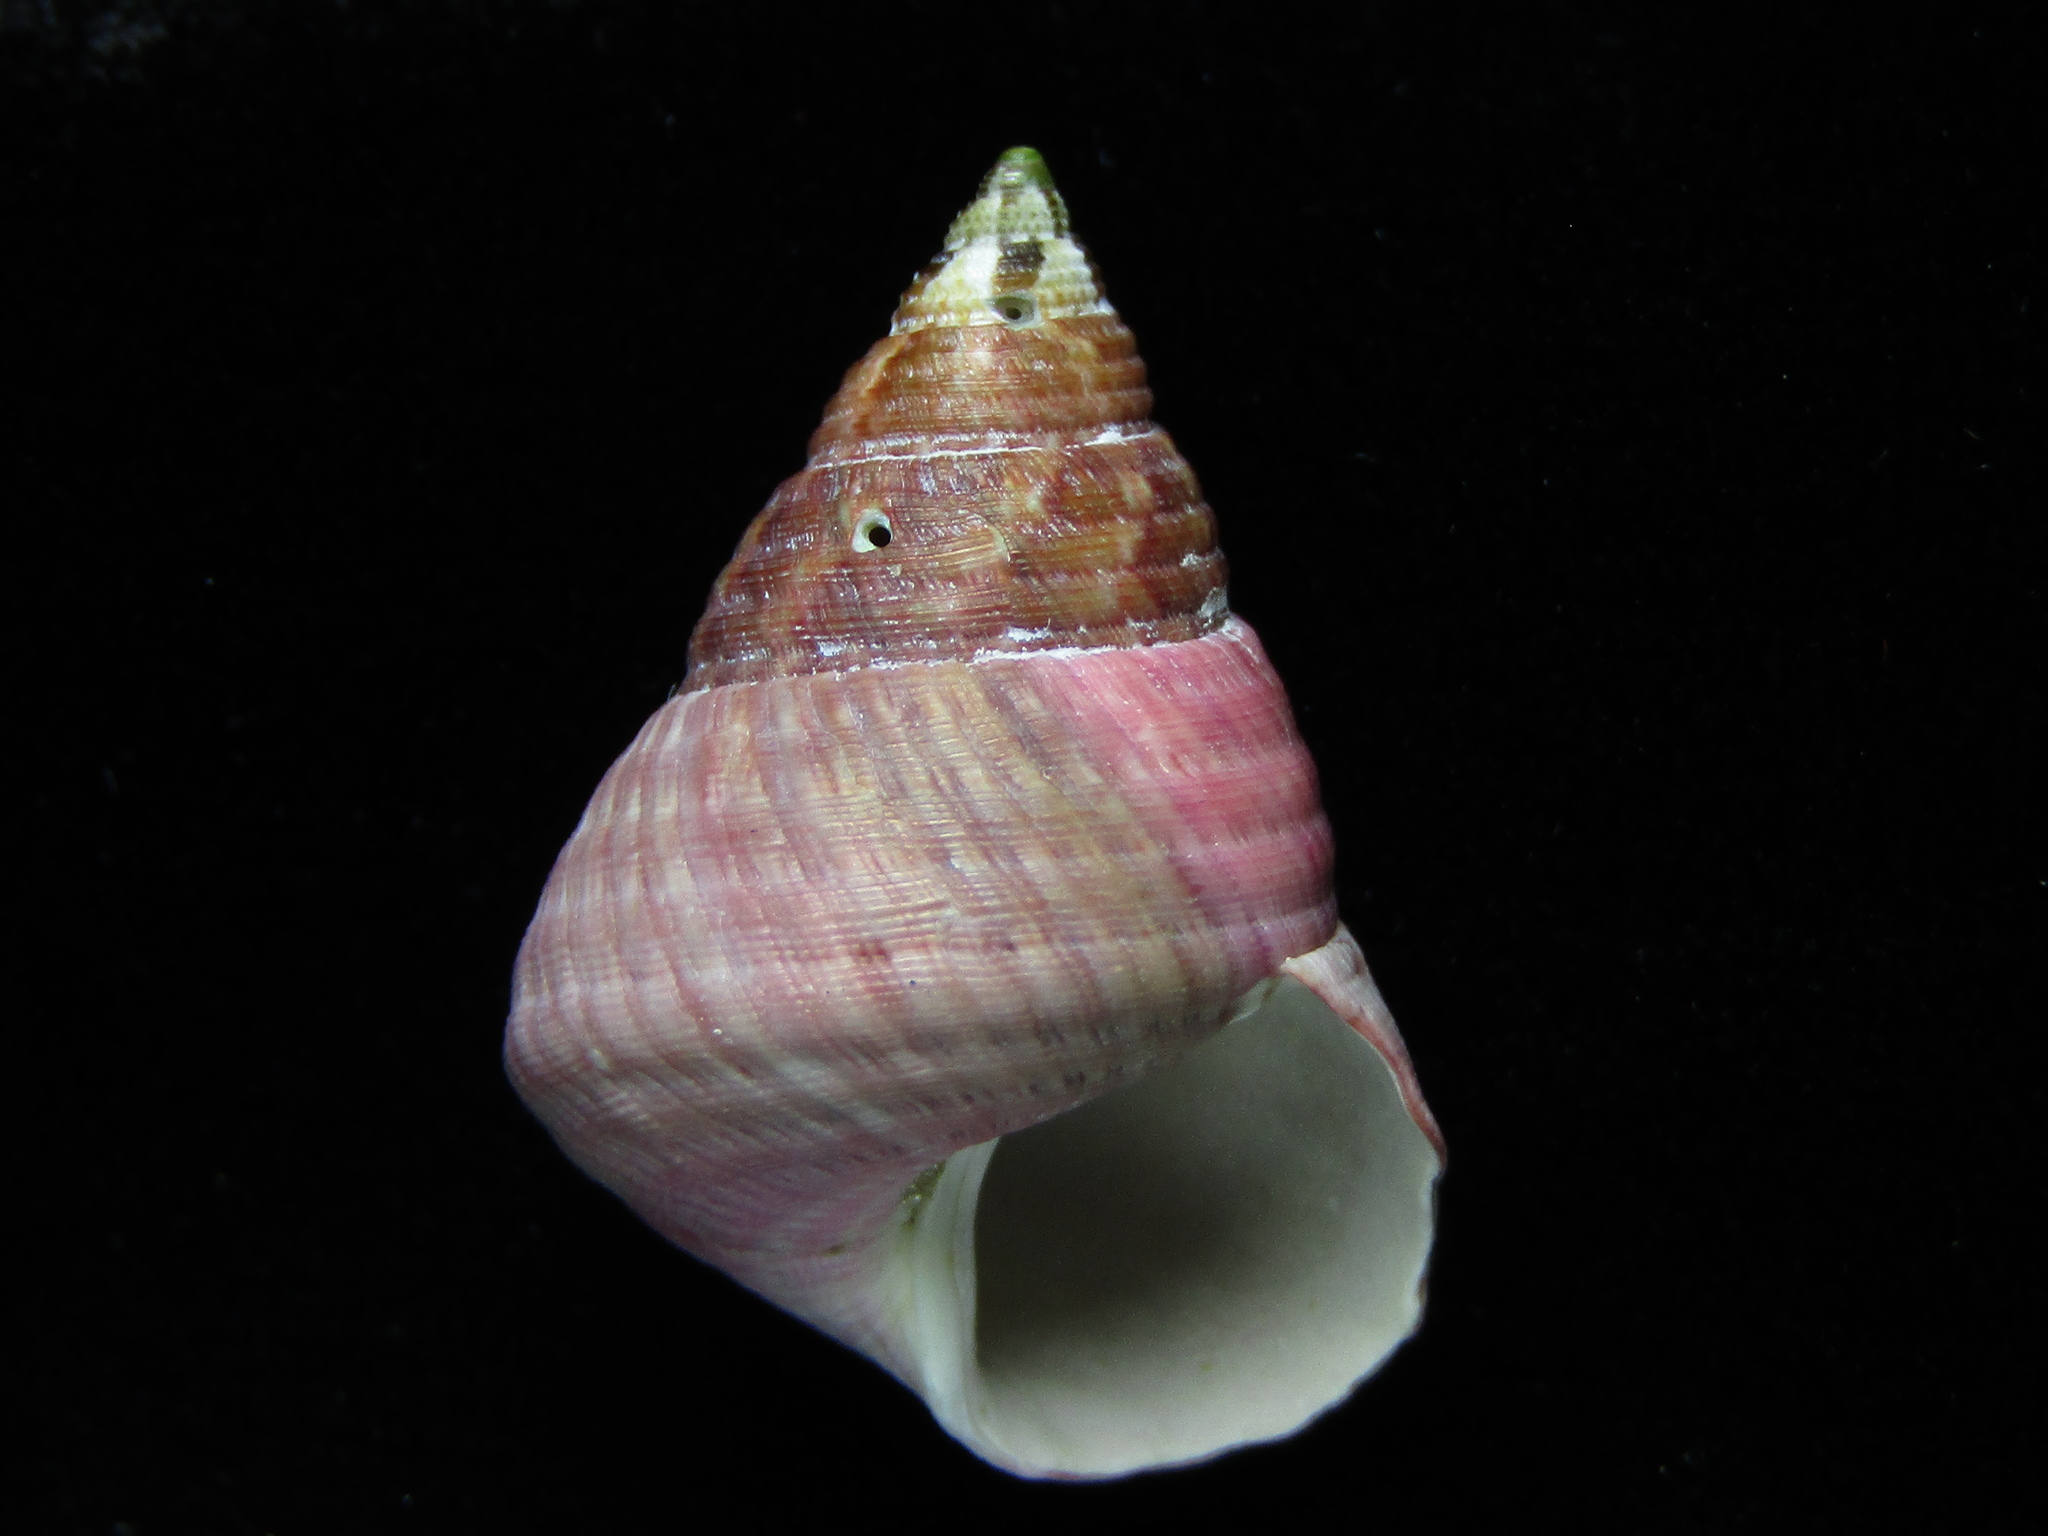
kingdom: Animalia
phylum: Mollusca
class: Gastropoda
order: Trochida
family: Trochidae
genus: Micrelenchus
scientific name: Micrelenchus purpureus
